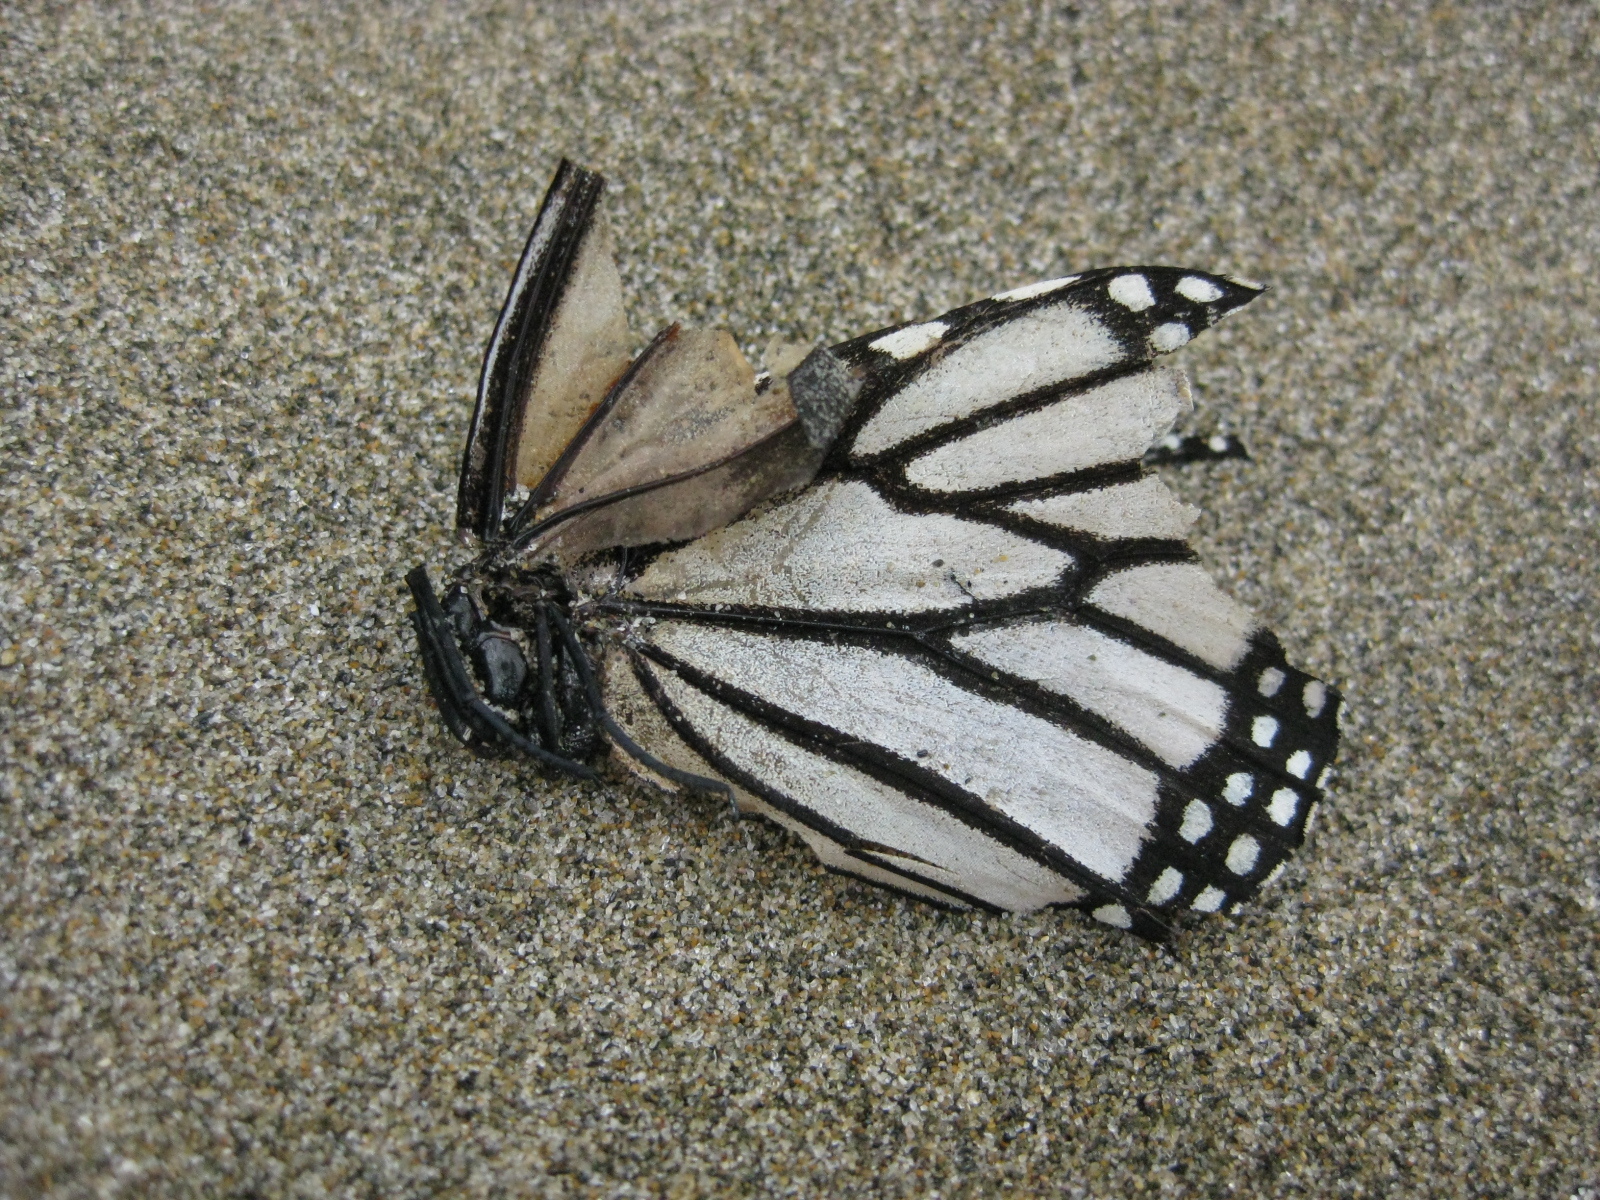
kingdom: Animalia
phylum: Arthropoda
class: Insecta
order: Lepidoptera
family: Nymphalidae
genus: Danaus
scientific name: Danaus plexippus
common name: Monarch
